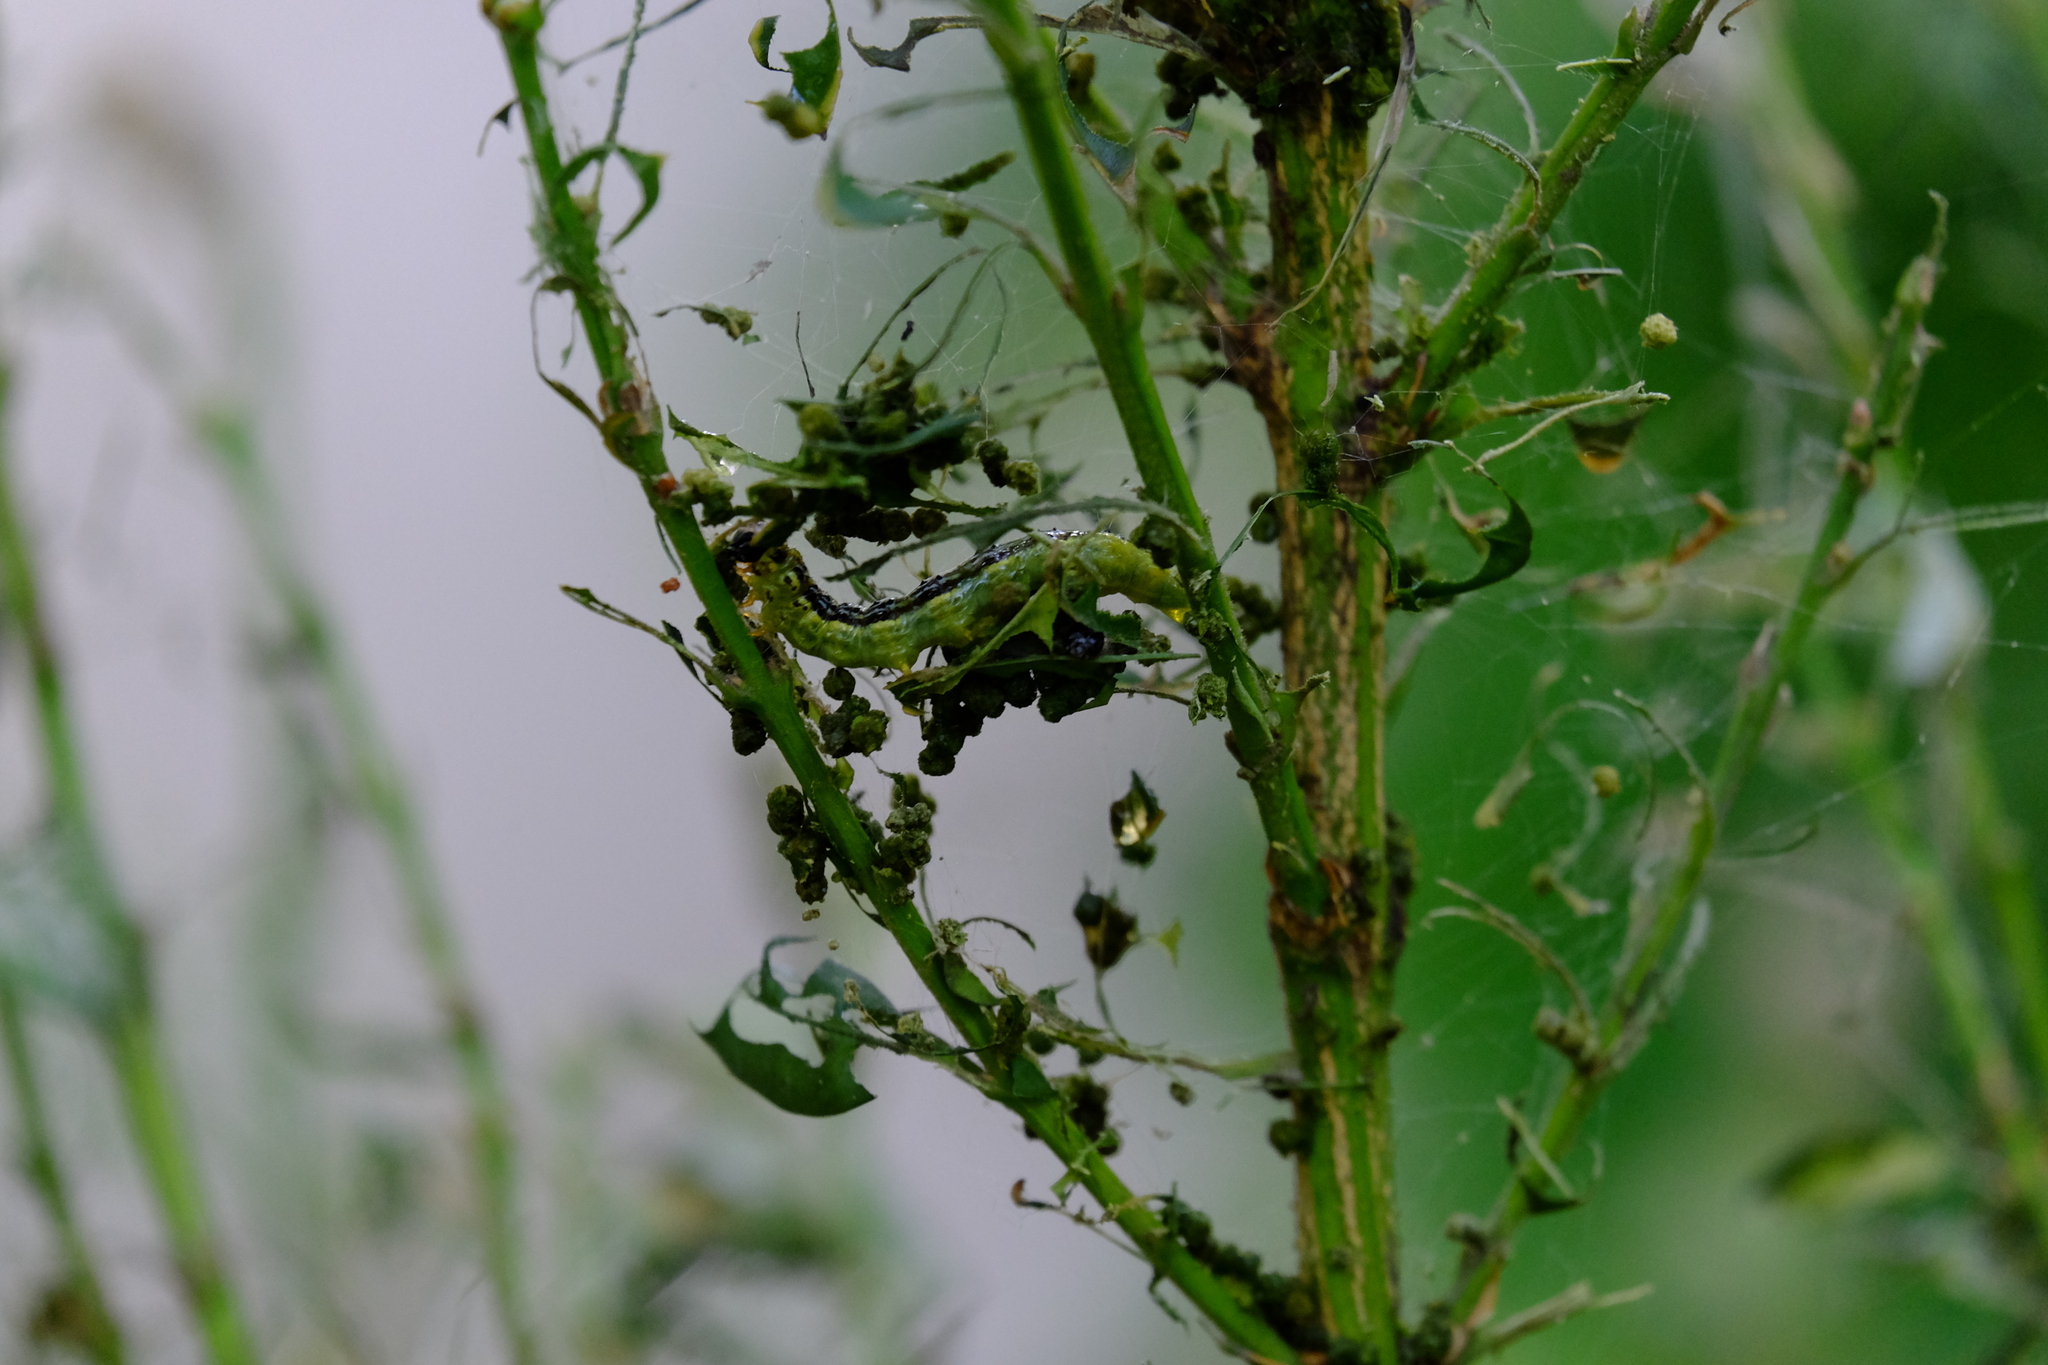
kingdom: Animalia
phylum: Arthropoda
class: Insecta
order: Lepidoptera
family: Crambidae
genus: Cydalima
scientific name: Cydalima perspectalis
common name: Box tree moth
